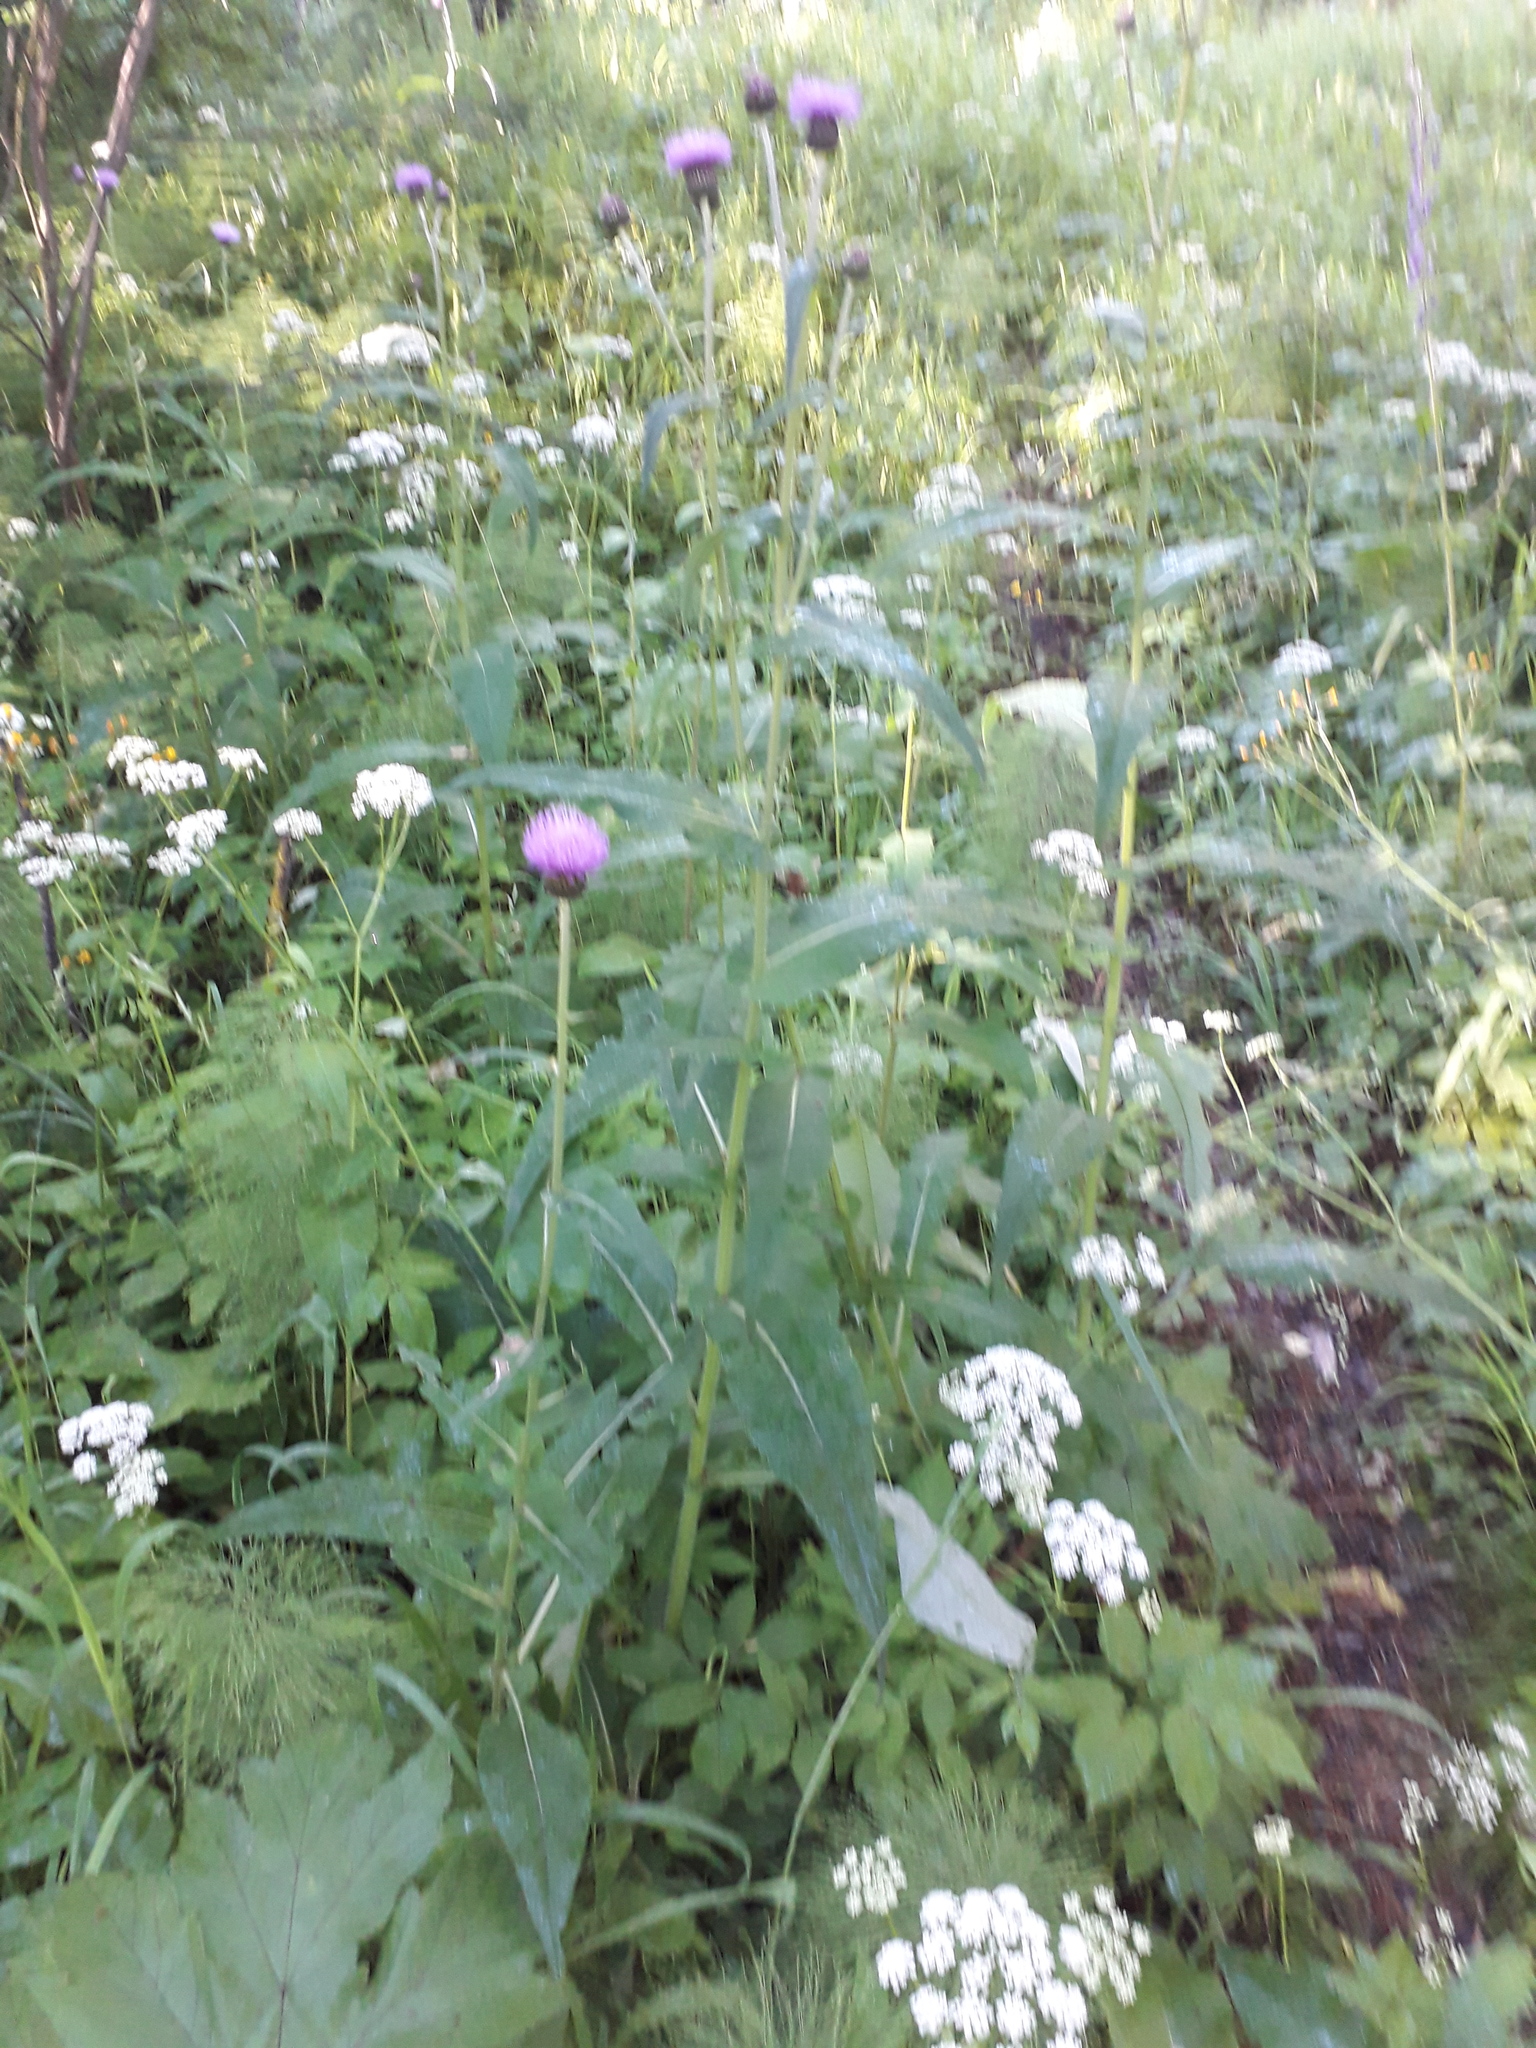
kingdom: Plantae
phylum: Tracheophyta
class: Magnoliopsida
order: Asterales
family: Asteraceae
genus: Cirsium
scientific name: Cirsium helenioides
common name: Melancholy thistle
